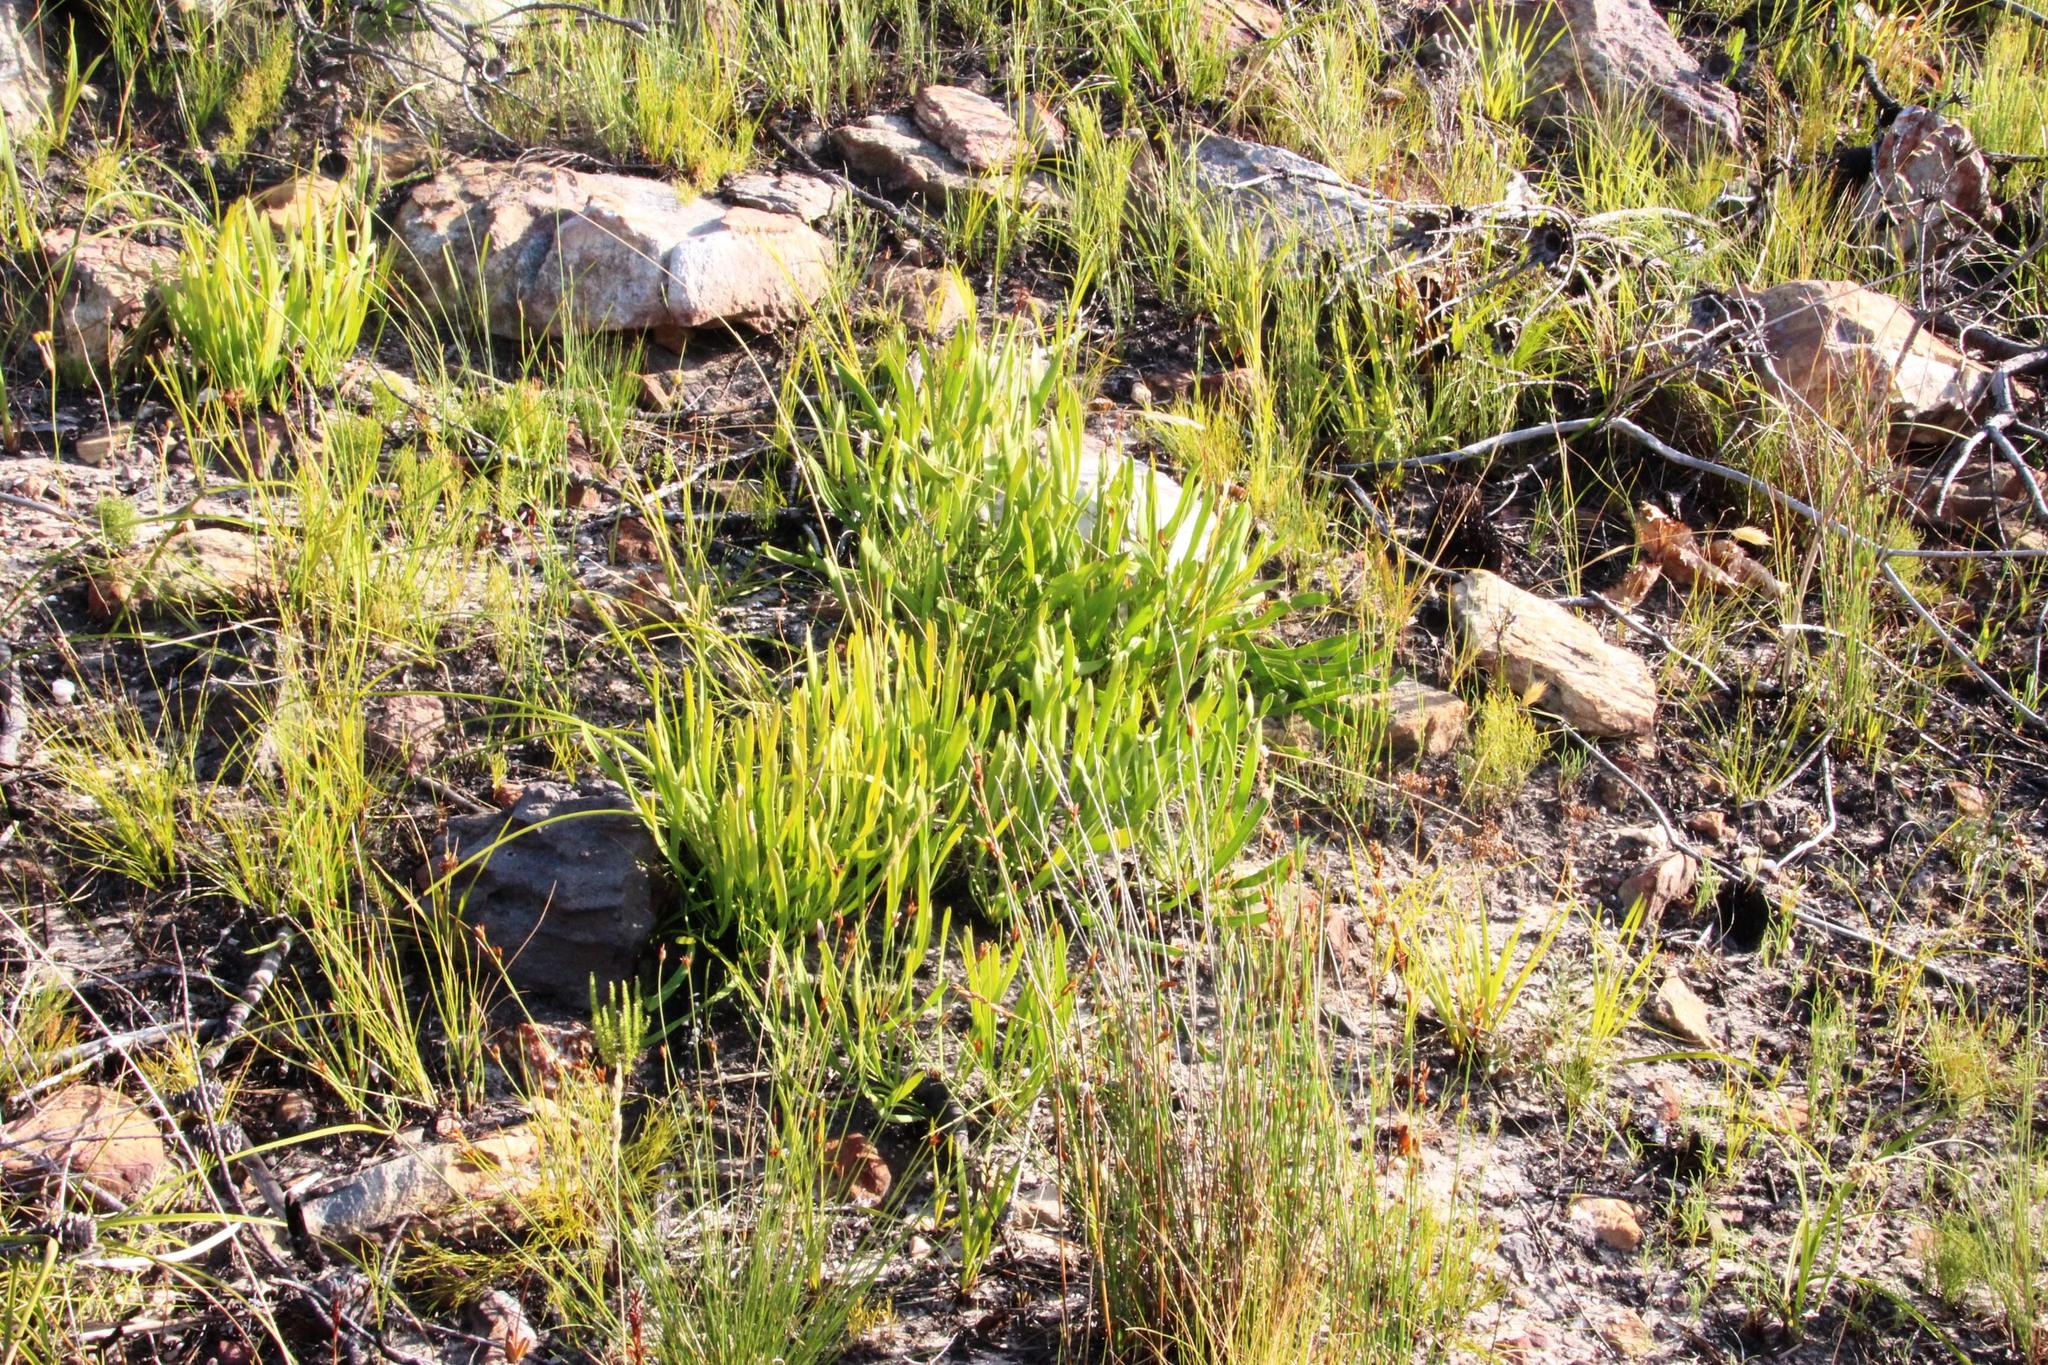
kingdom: Plantae
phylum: Tracheophyta
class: Magnoliopsida
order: Proteales
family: Proteaceae
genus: Protea
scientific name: Protea scabra
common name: Sandpaper-leaf sugarbush
